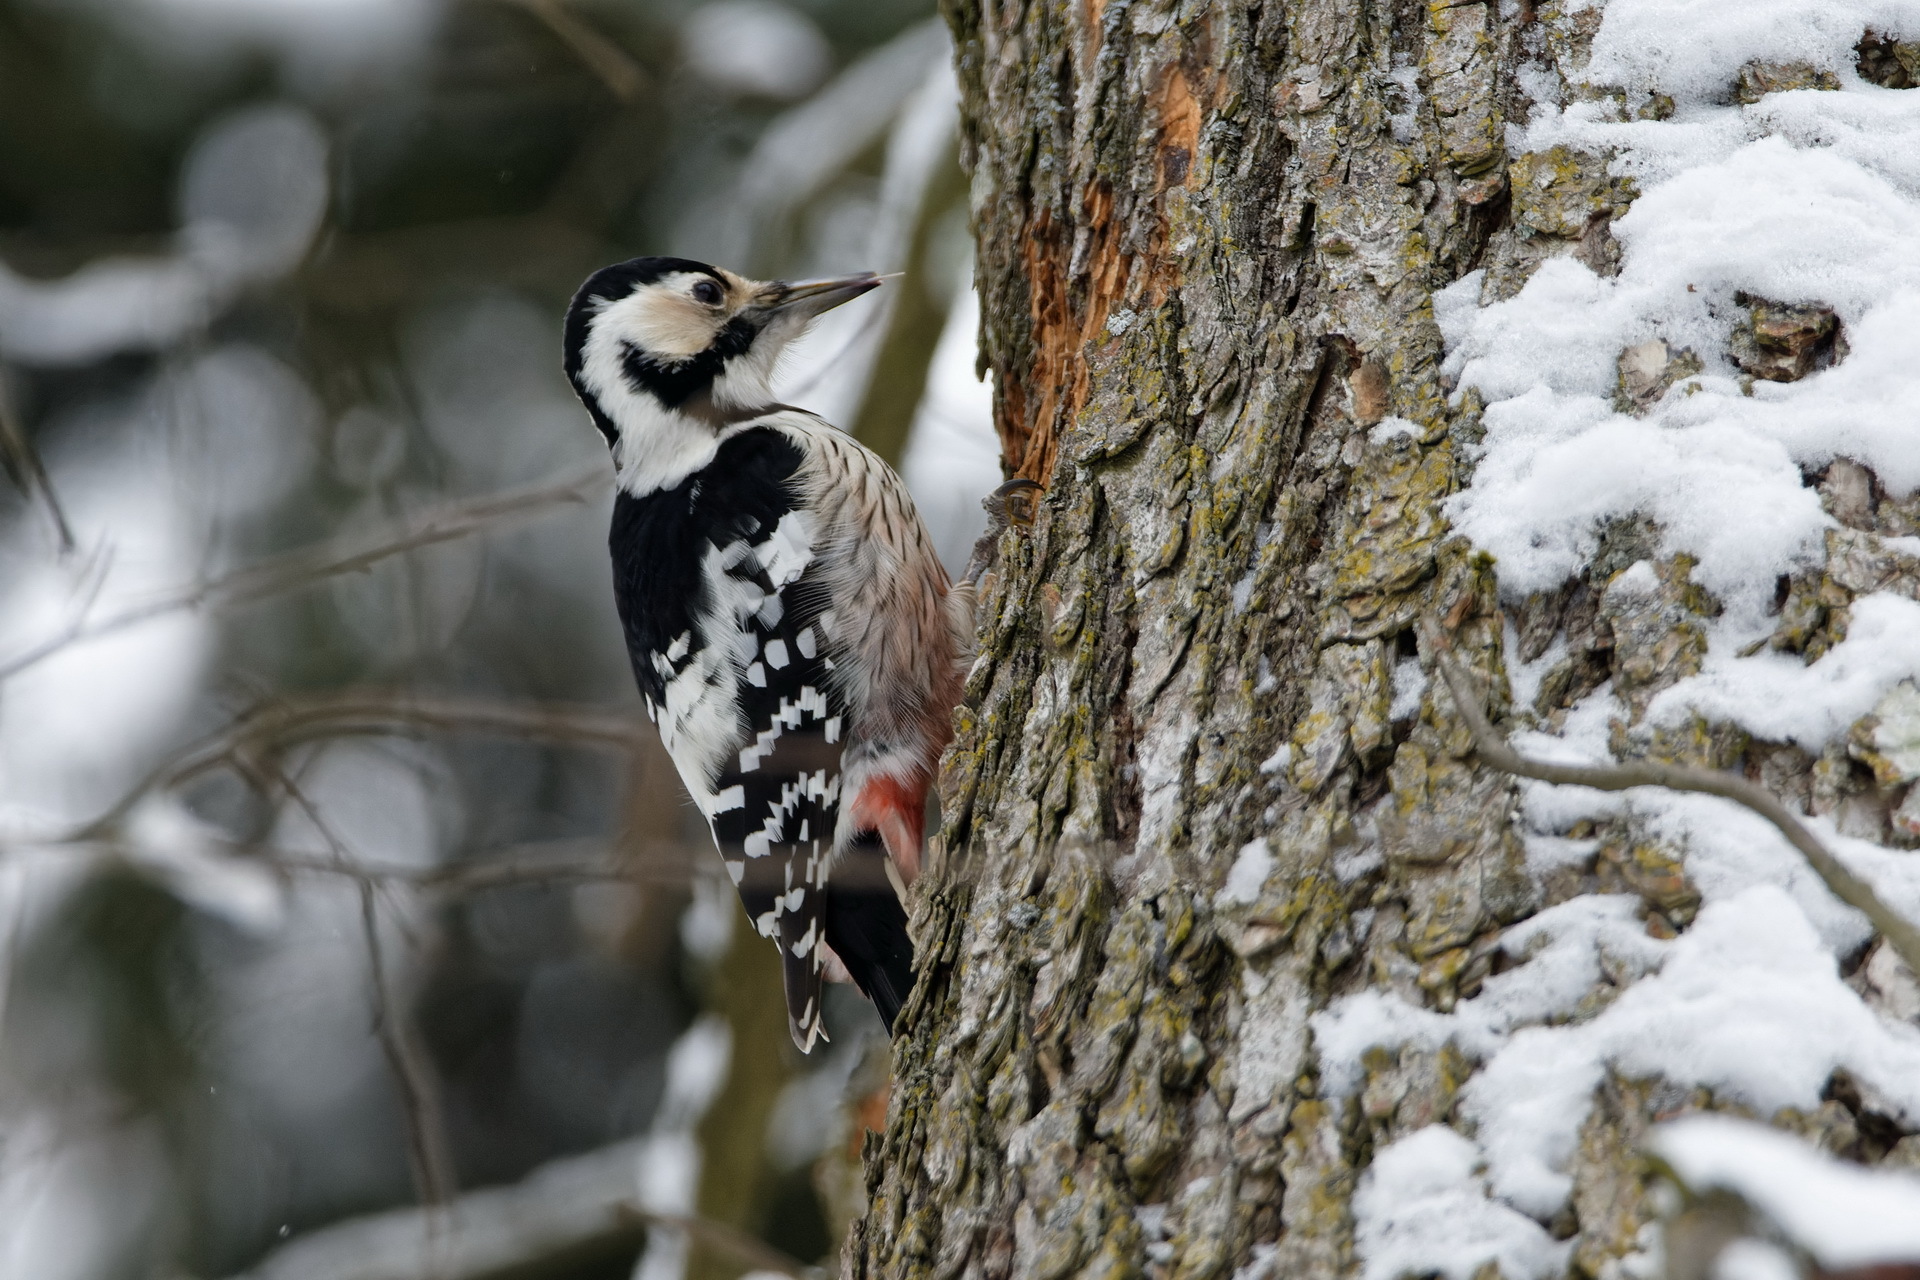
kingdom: Animalia
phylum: Chordata
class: Aves
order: Piciformes
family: Picidae
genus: Dendrocopos
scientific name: Dendrocopos leucotos
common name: White-backed woodpecker
